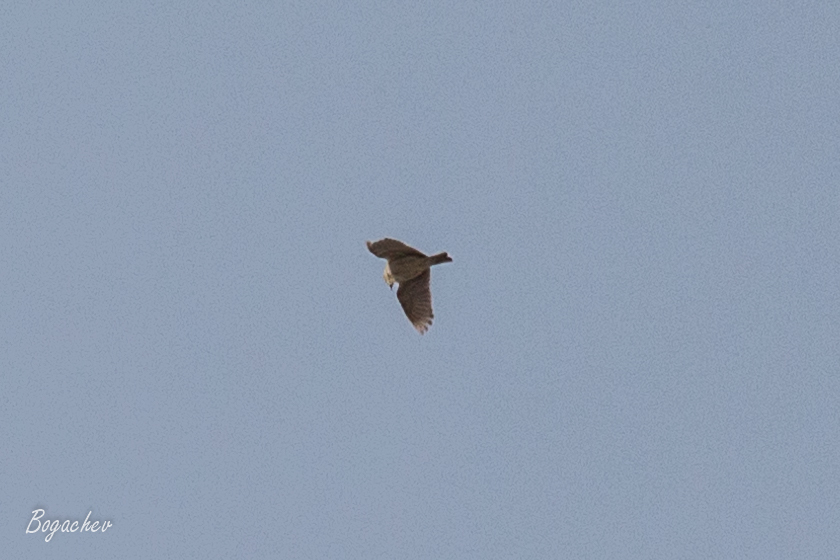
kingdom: Animalia
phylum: Chordata
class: Aves
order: Passeriformes
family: Alaudidae
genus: Alauda
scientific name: Alauda arvensis
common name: Eurasian skylark
